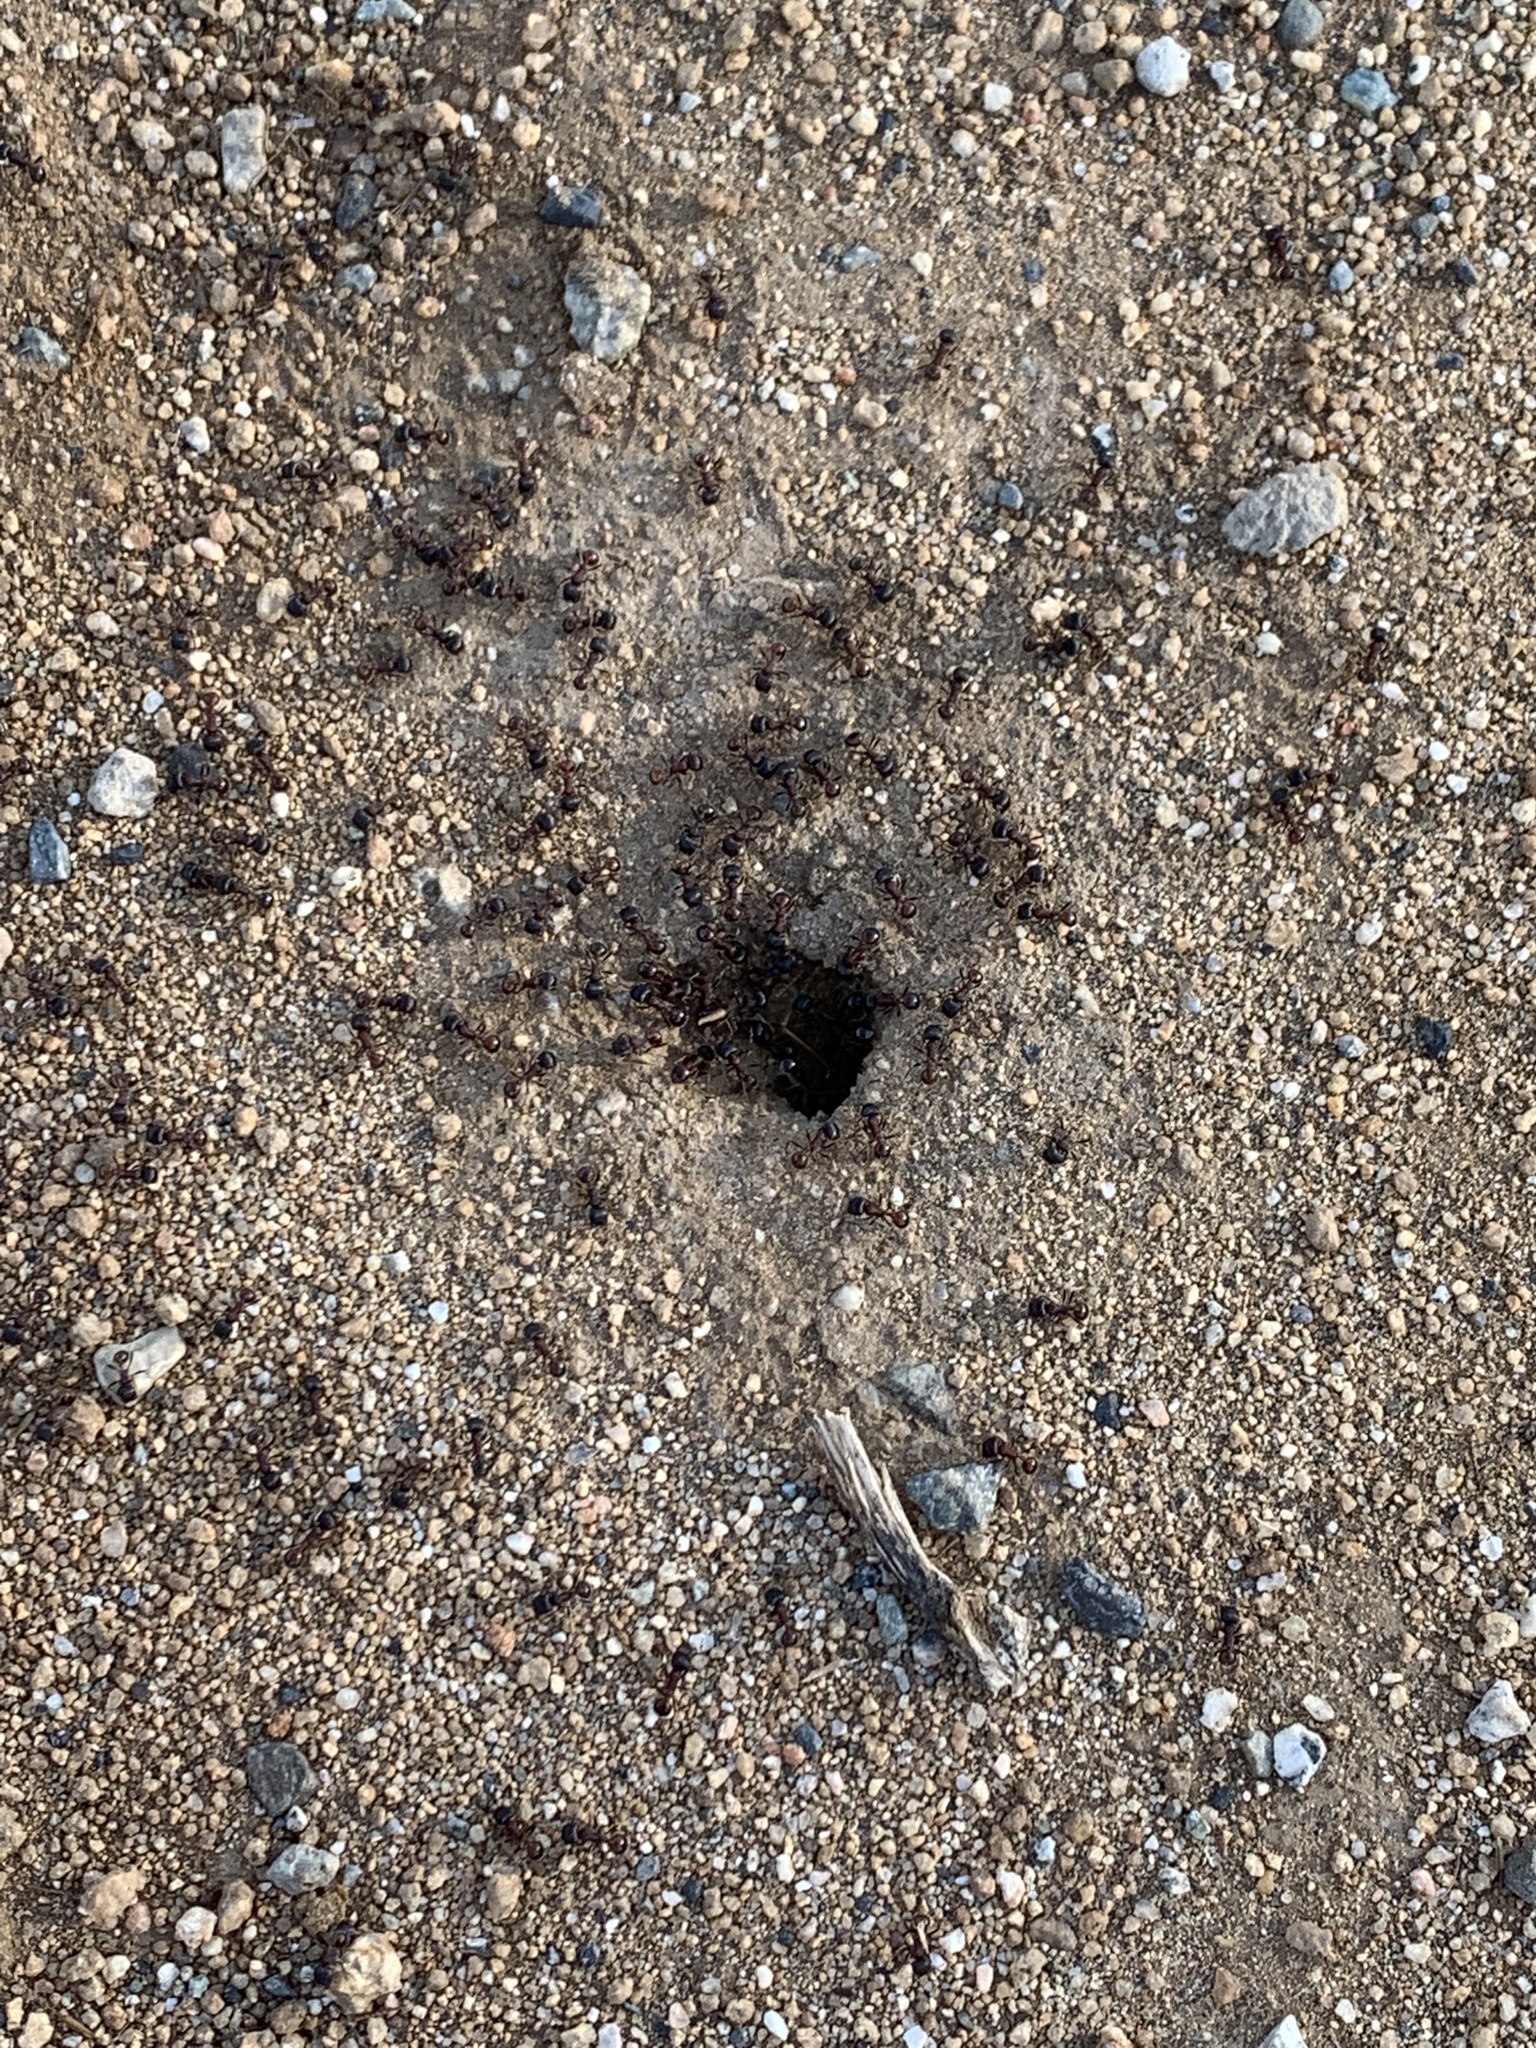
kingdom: Animalia
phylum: Arthropoda
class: Insecta
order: Hymenoptera
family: Formicidae
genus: Pogonomyrmex
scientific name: Pogonomyrmex rugosus
